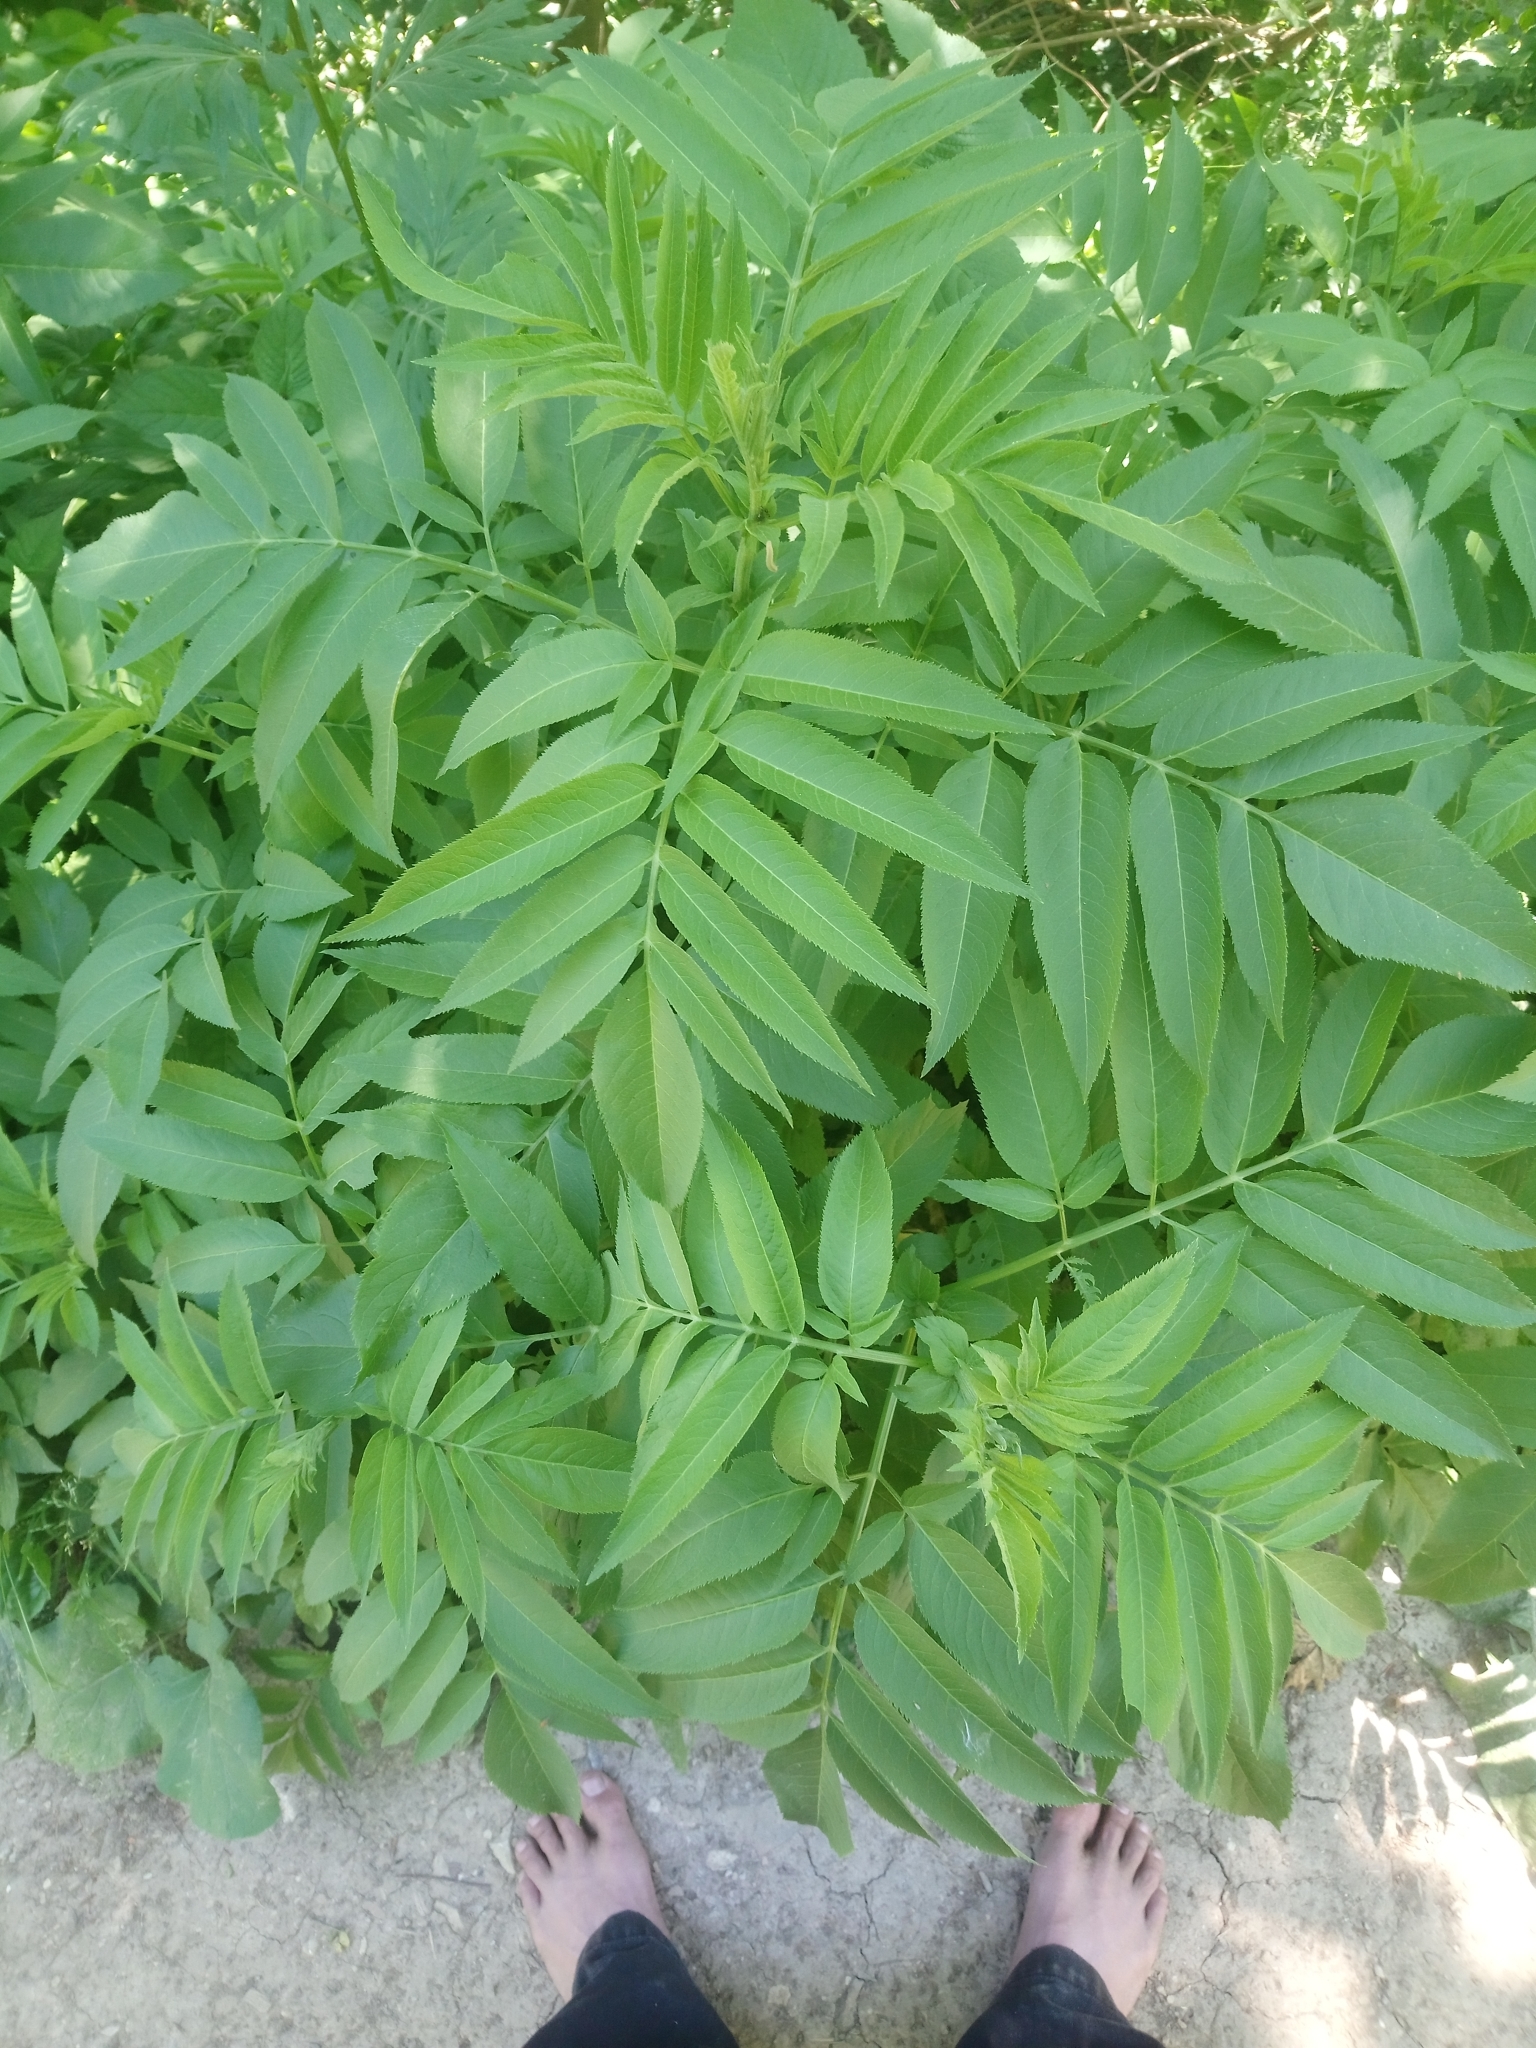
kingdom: Plantae
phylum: Tracheophyta
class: Magnoliopsida
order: Dipsacales
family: Viburnaceae
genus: Sambucus
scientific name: Sambucus ebulus
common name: Dwarf elder
